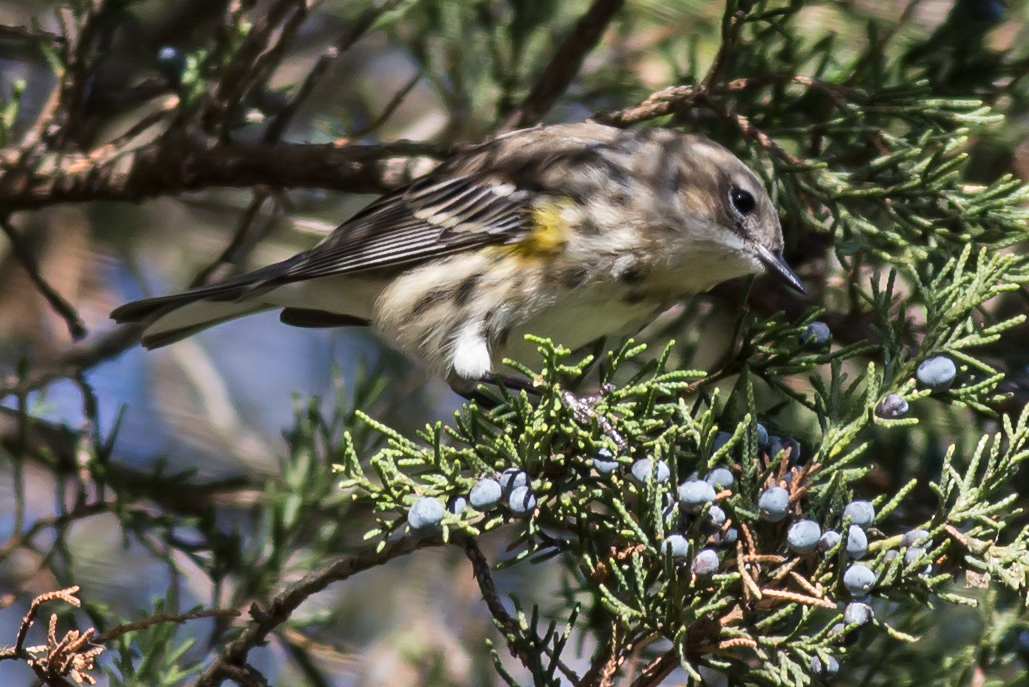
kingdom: Animalia
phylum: Chordata
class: Aves
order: Passeriformes
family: Parulidae
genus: Setophaga
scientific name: Setophaga coronata
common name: Myrtle warbler
